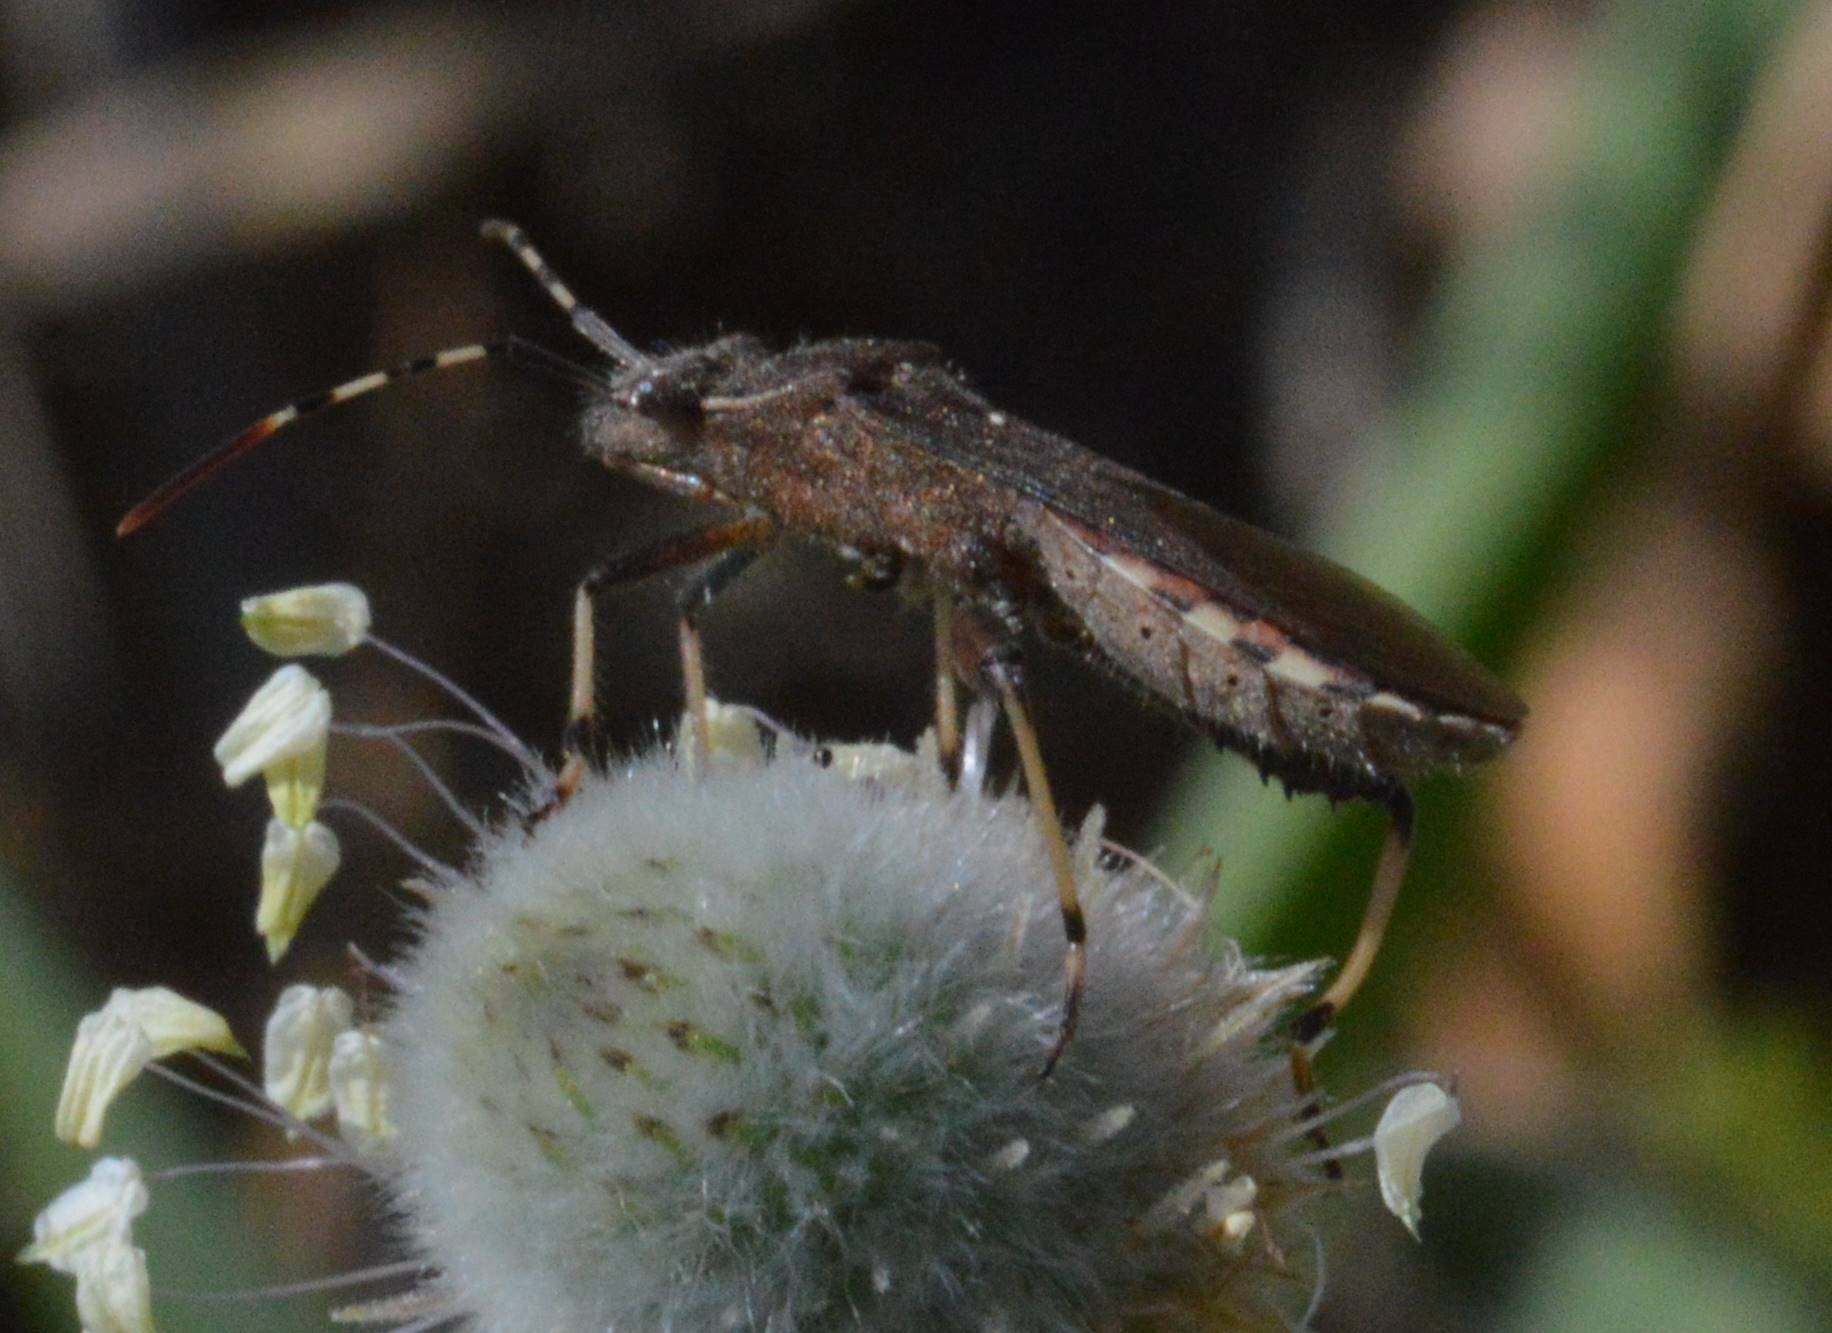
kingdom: Animalia
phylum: Arthropoda
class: Insecta
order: Hemiptera
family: Alydidae
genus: Camptopus
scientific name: Camptopus lateralis
